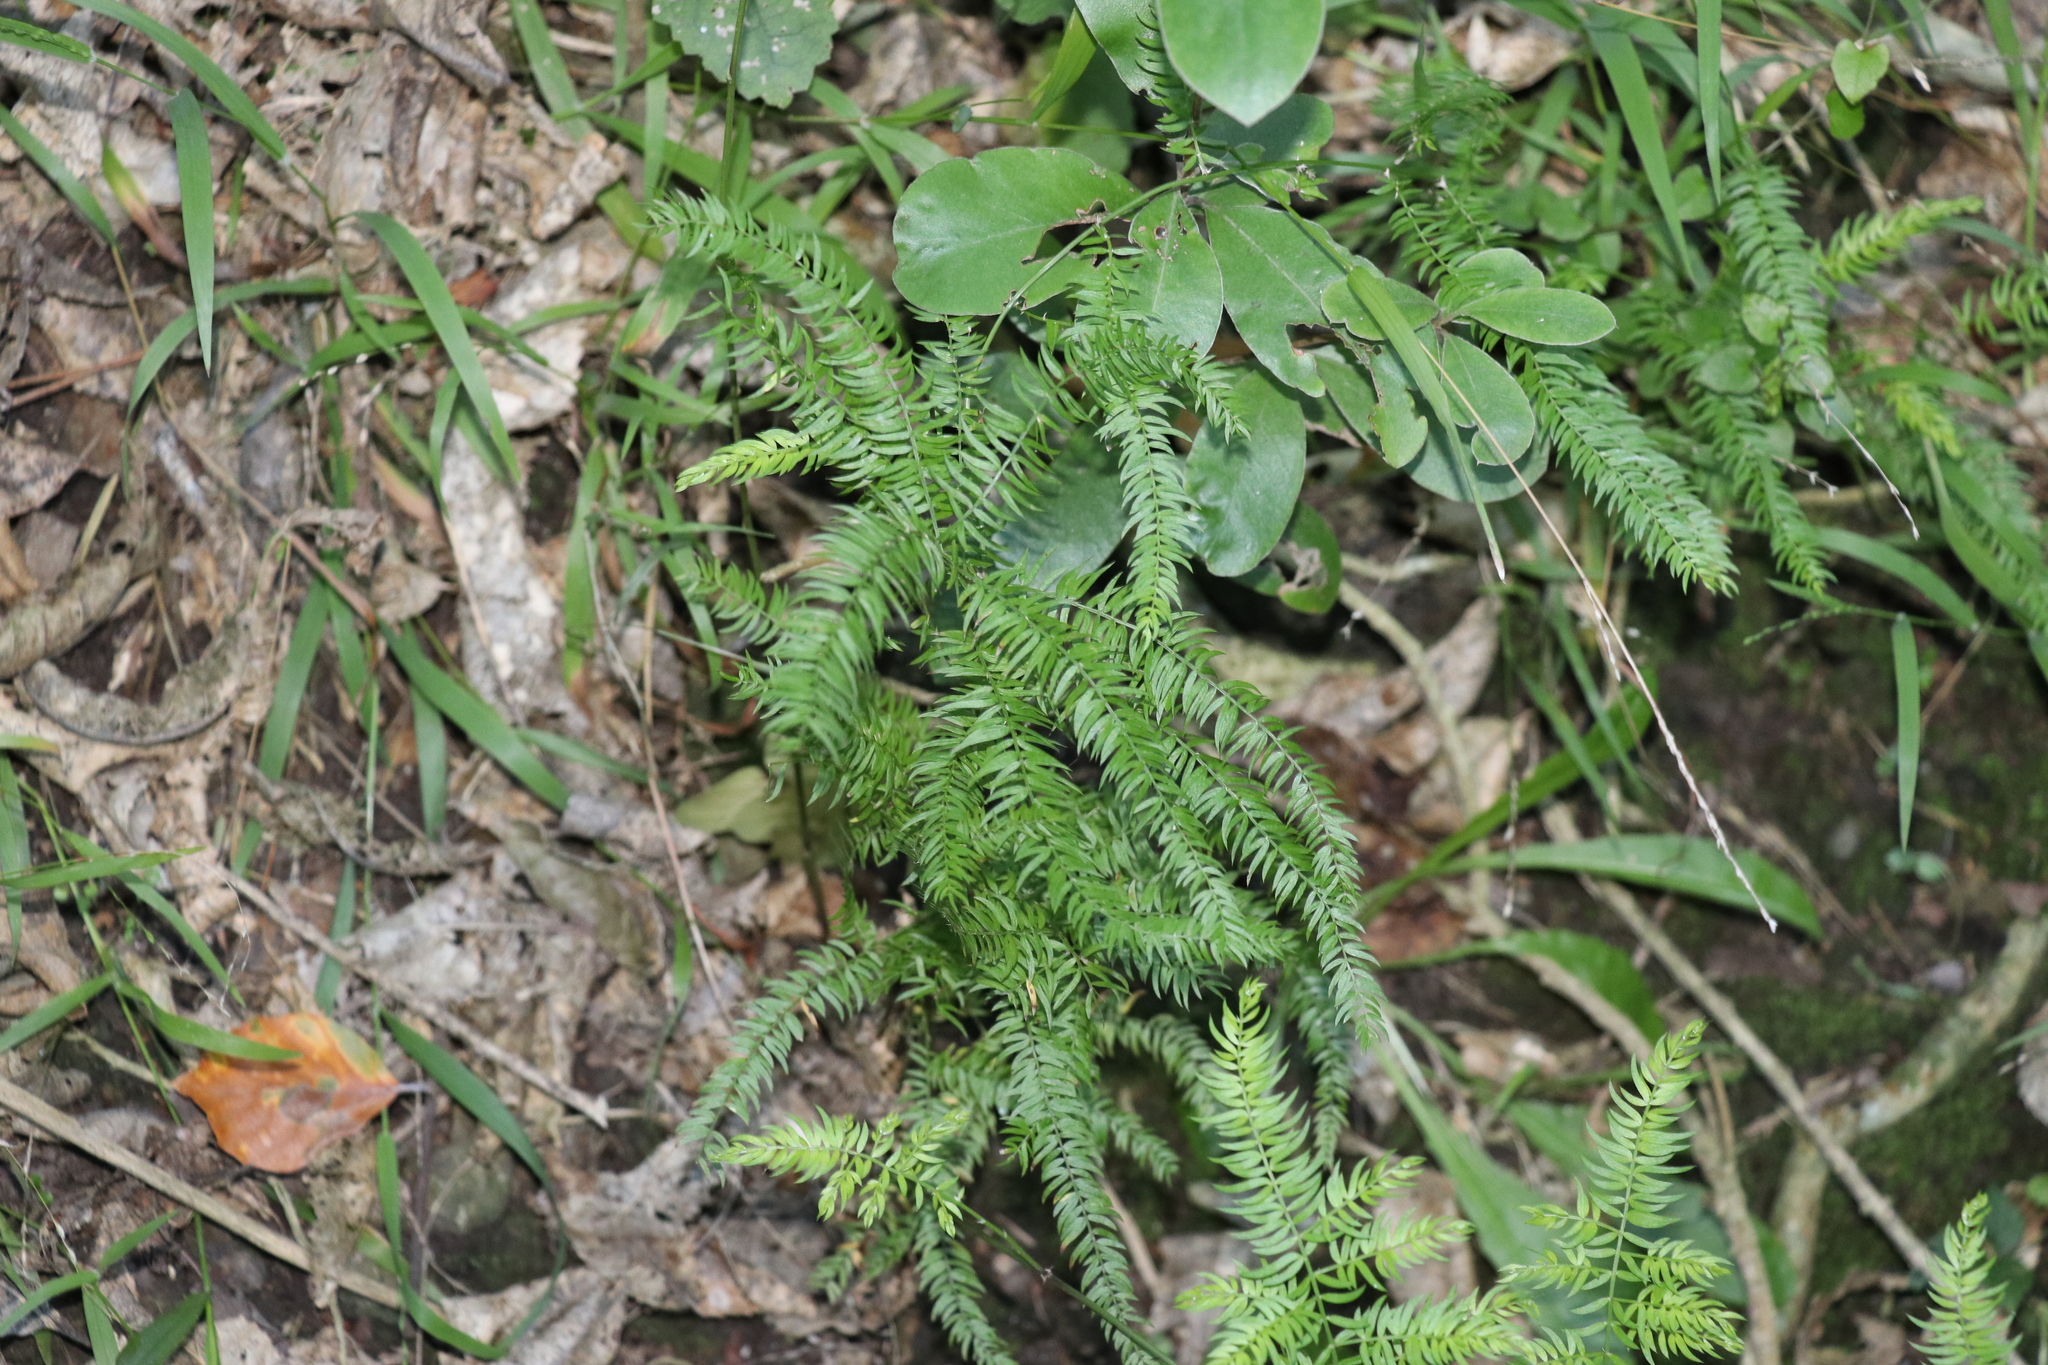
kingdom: Plantae
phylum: Tracheophyta
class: Liliopsida
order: Asparagales
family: Asparagaceae
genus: Asparagus
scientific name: Asparagus scandens
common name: Asparagus-fern
